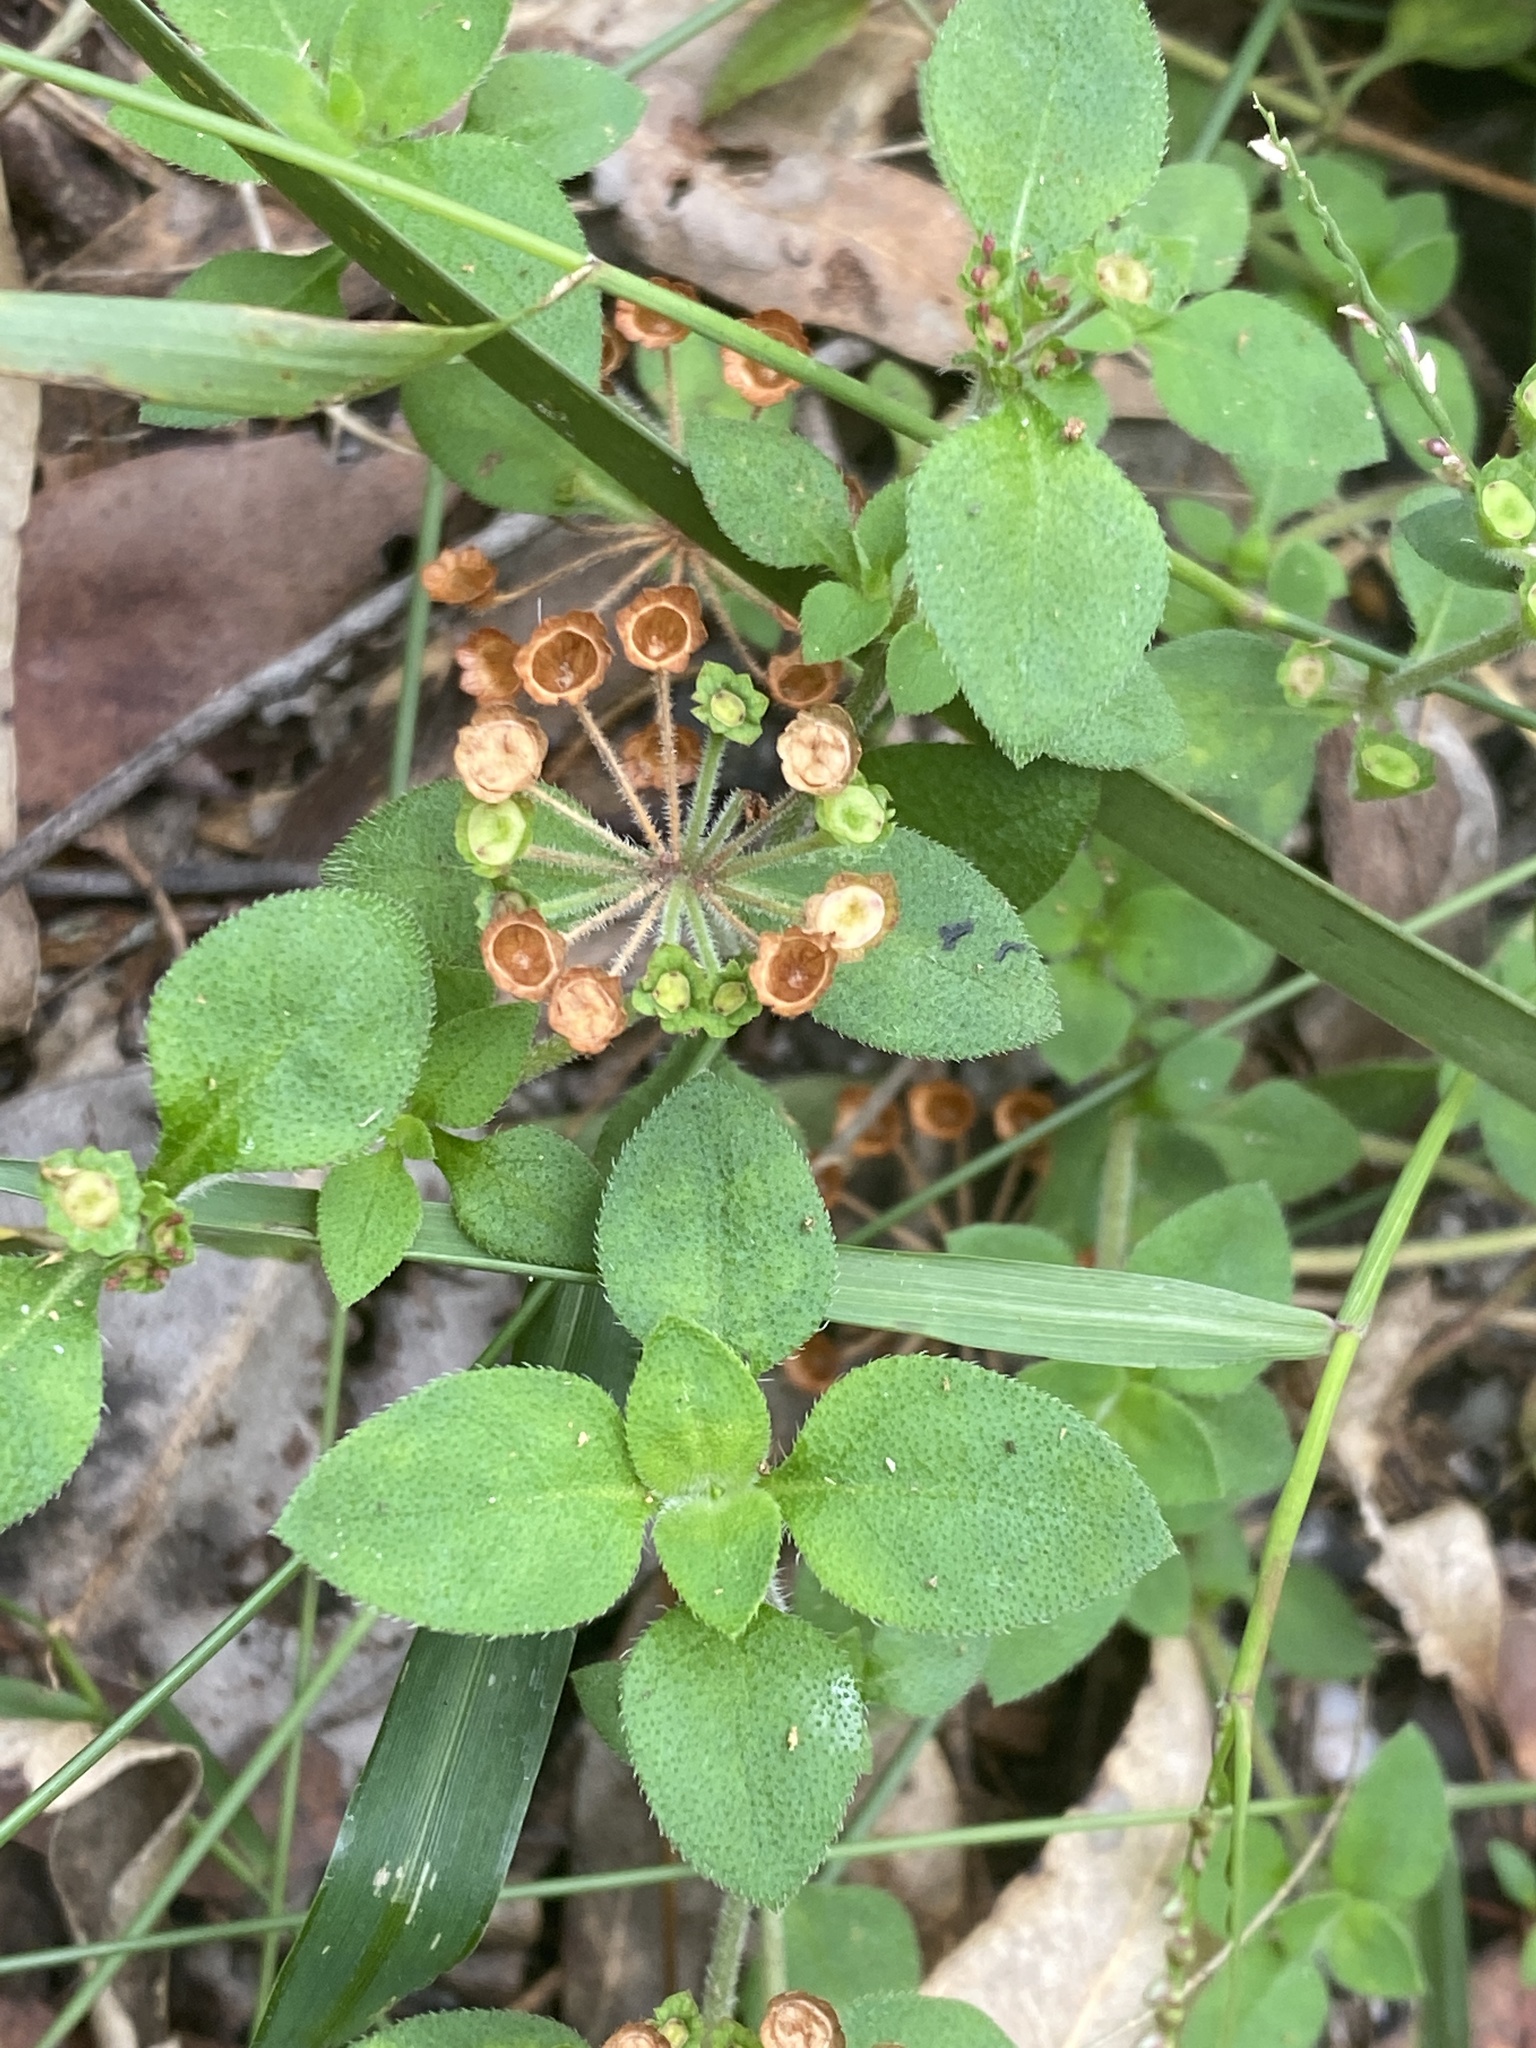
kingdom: Plantae
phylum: Tracheophyta
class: Magnoliopsida
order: Gentianales
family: Rubiaceae
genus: Pomax
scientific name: Pomax umbellata
